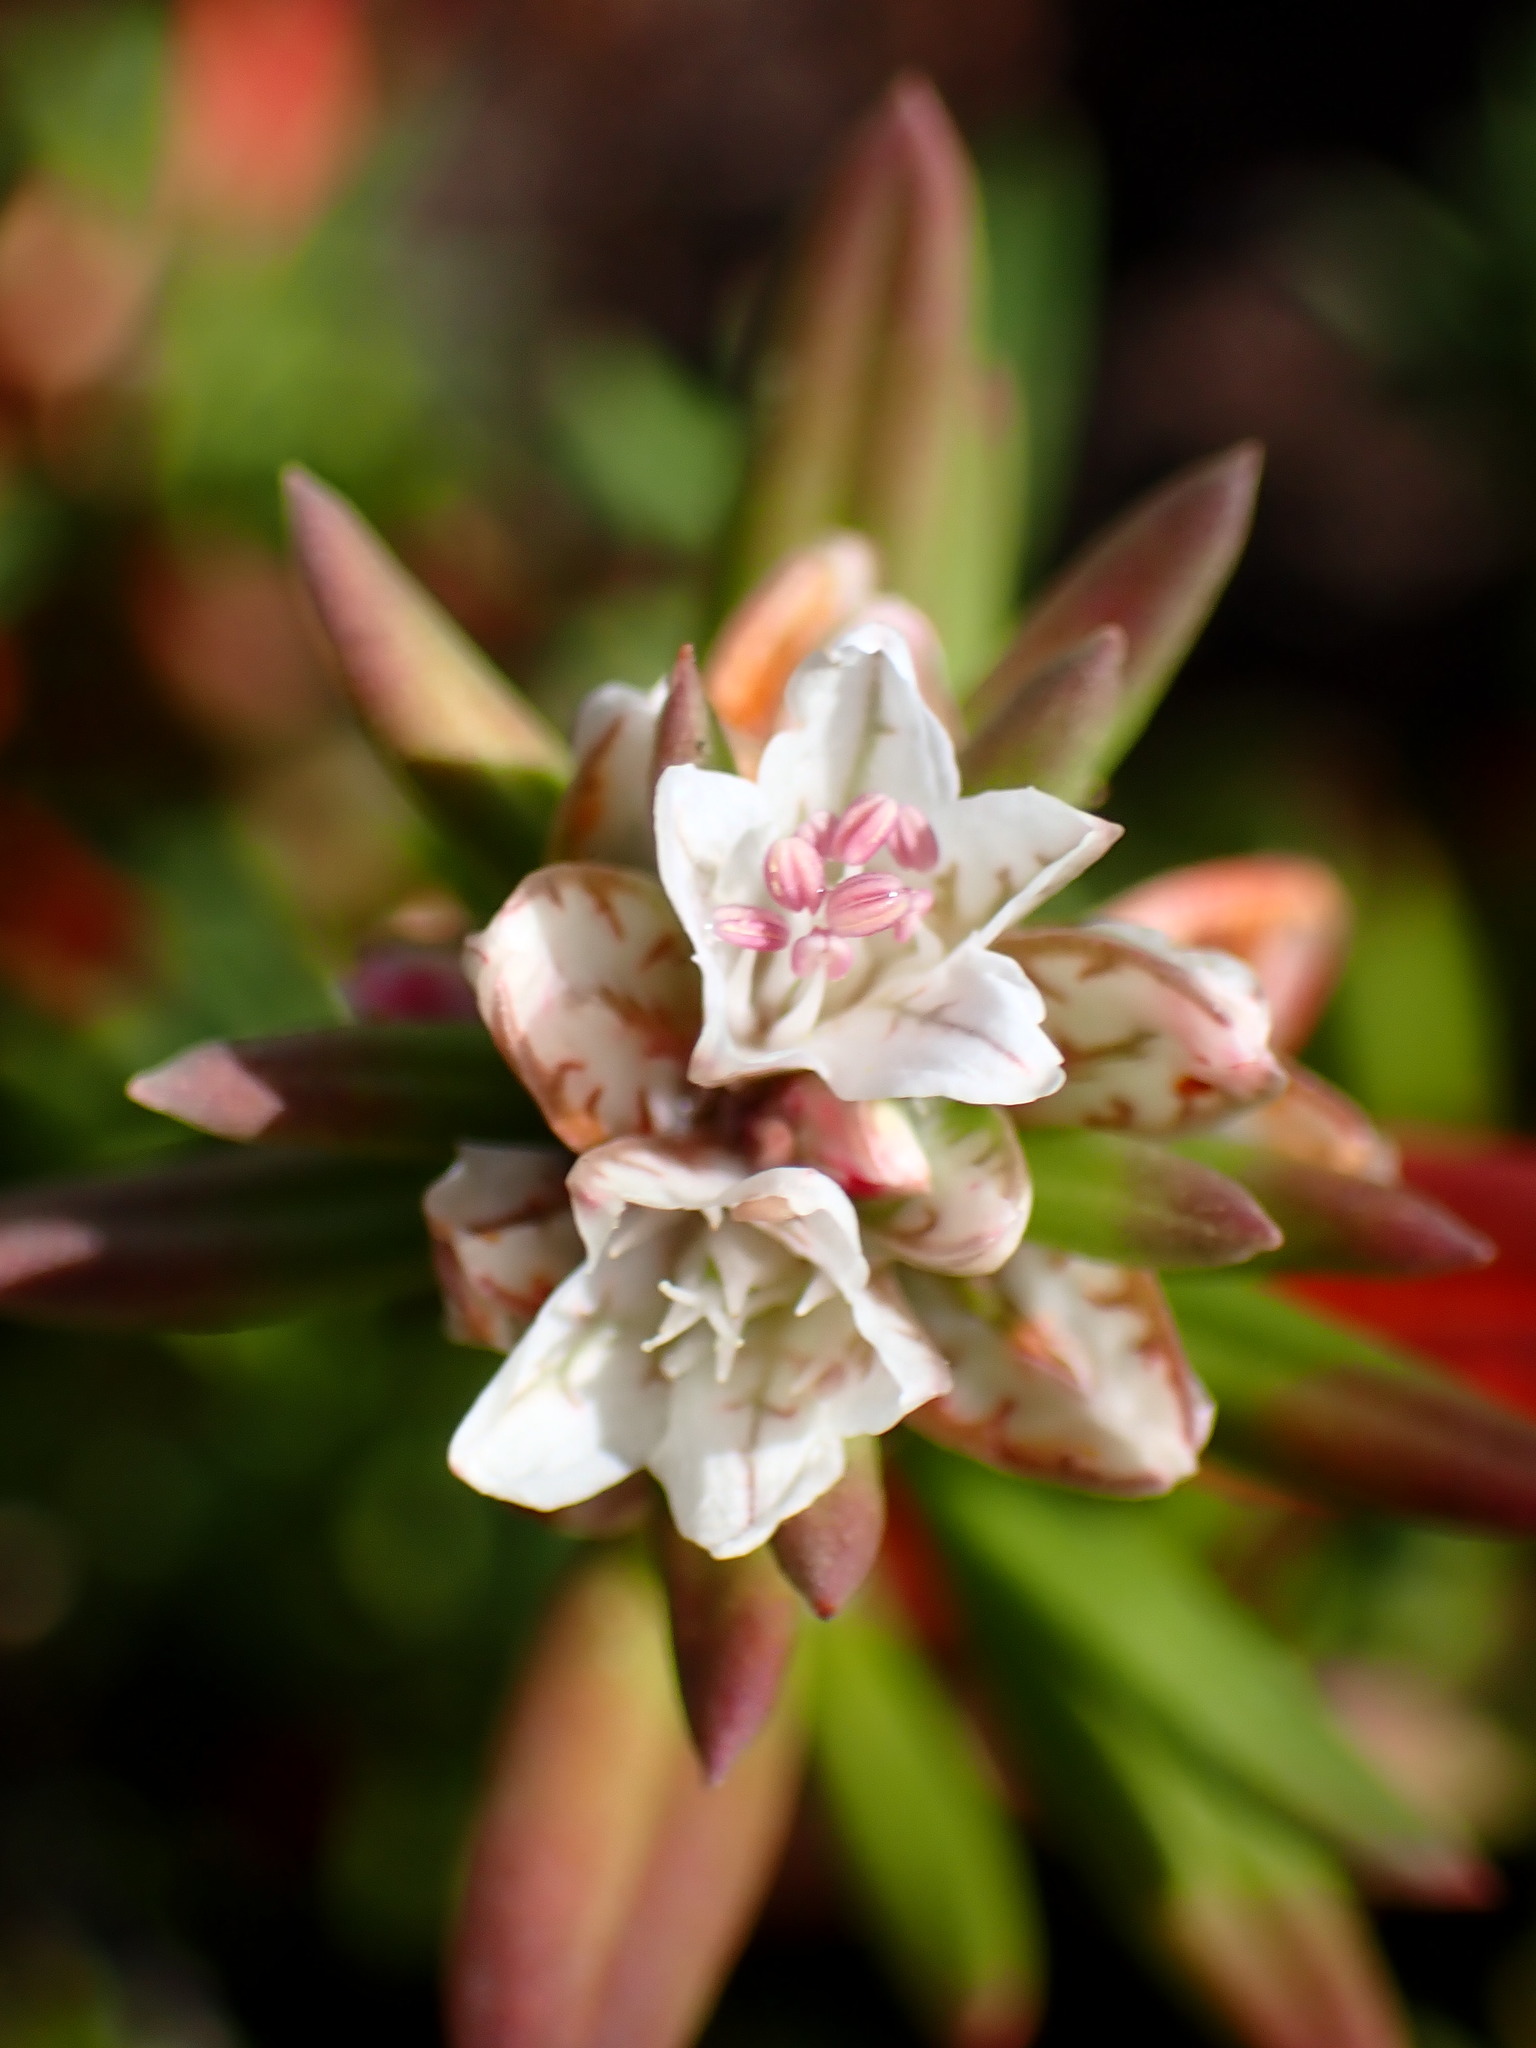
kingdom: Plantae
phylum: Tracheophyta
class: Magnoliopsida
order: Caryophyllales
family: Polygonaceae
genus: Polygonum
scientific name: Polygonum paronychia
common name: Dune knotweed
